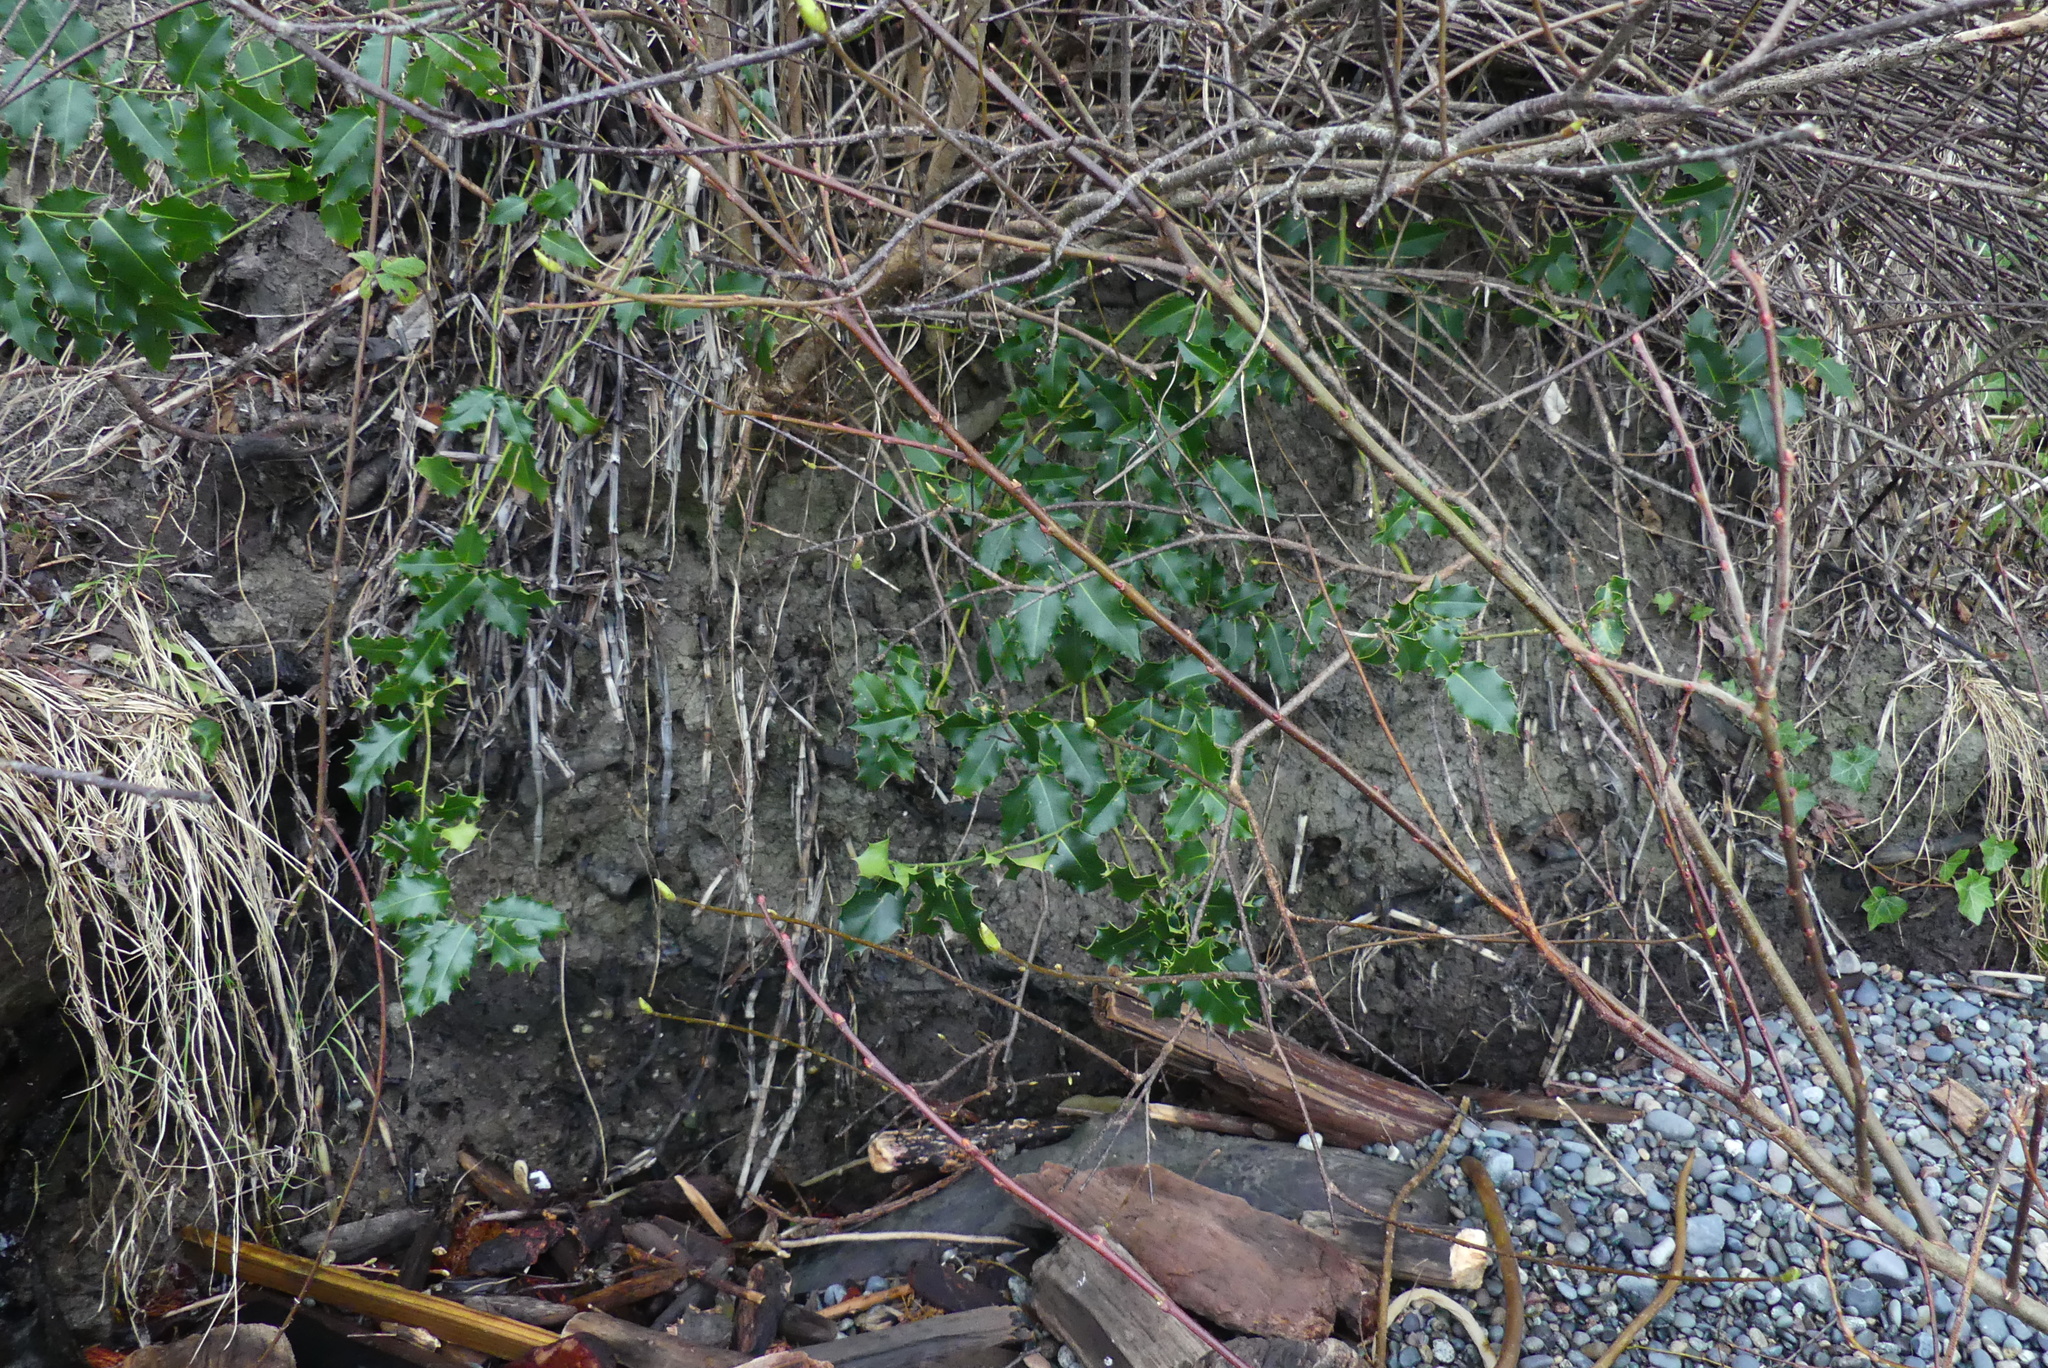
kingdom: Plantae
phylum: Tracheophyta
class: Magnoliopsida
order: Aquifoliales
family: Aquifoliaceae
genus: Ilex
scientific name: Ilex aquifolium
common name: English holly
